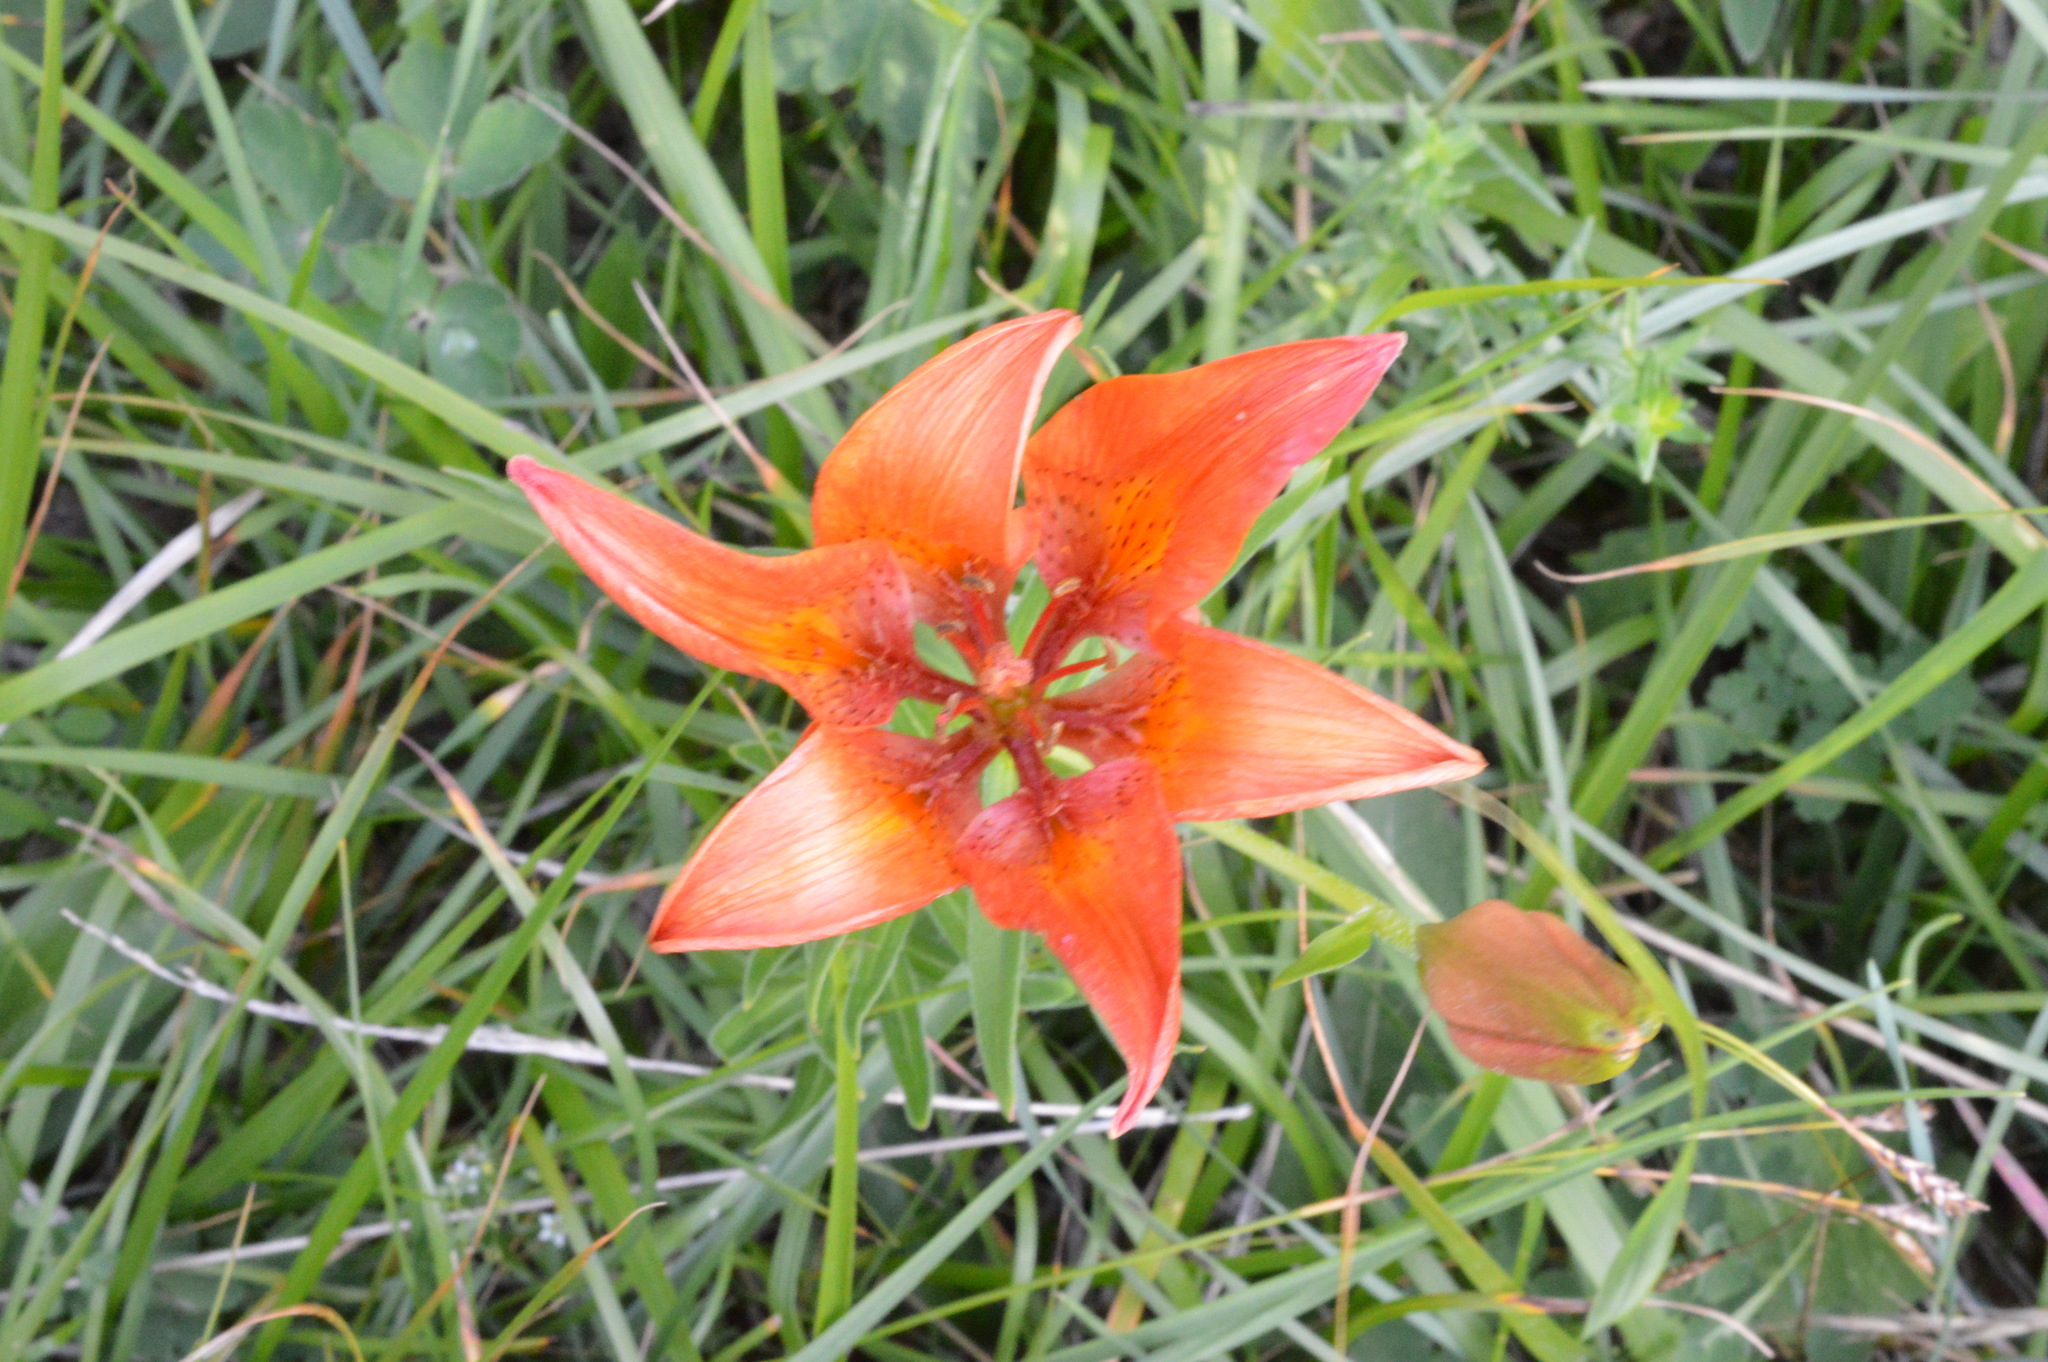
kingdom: Plantae
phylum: Tracheophyta
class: Liliopsida
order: Liliales
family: Liliaceae
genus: Lilium
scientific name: Lilium bulbiferum
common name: Orange lily
